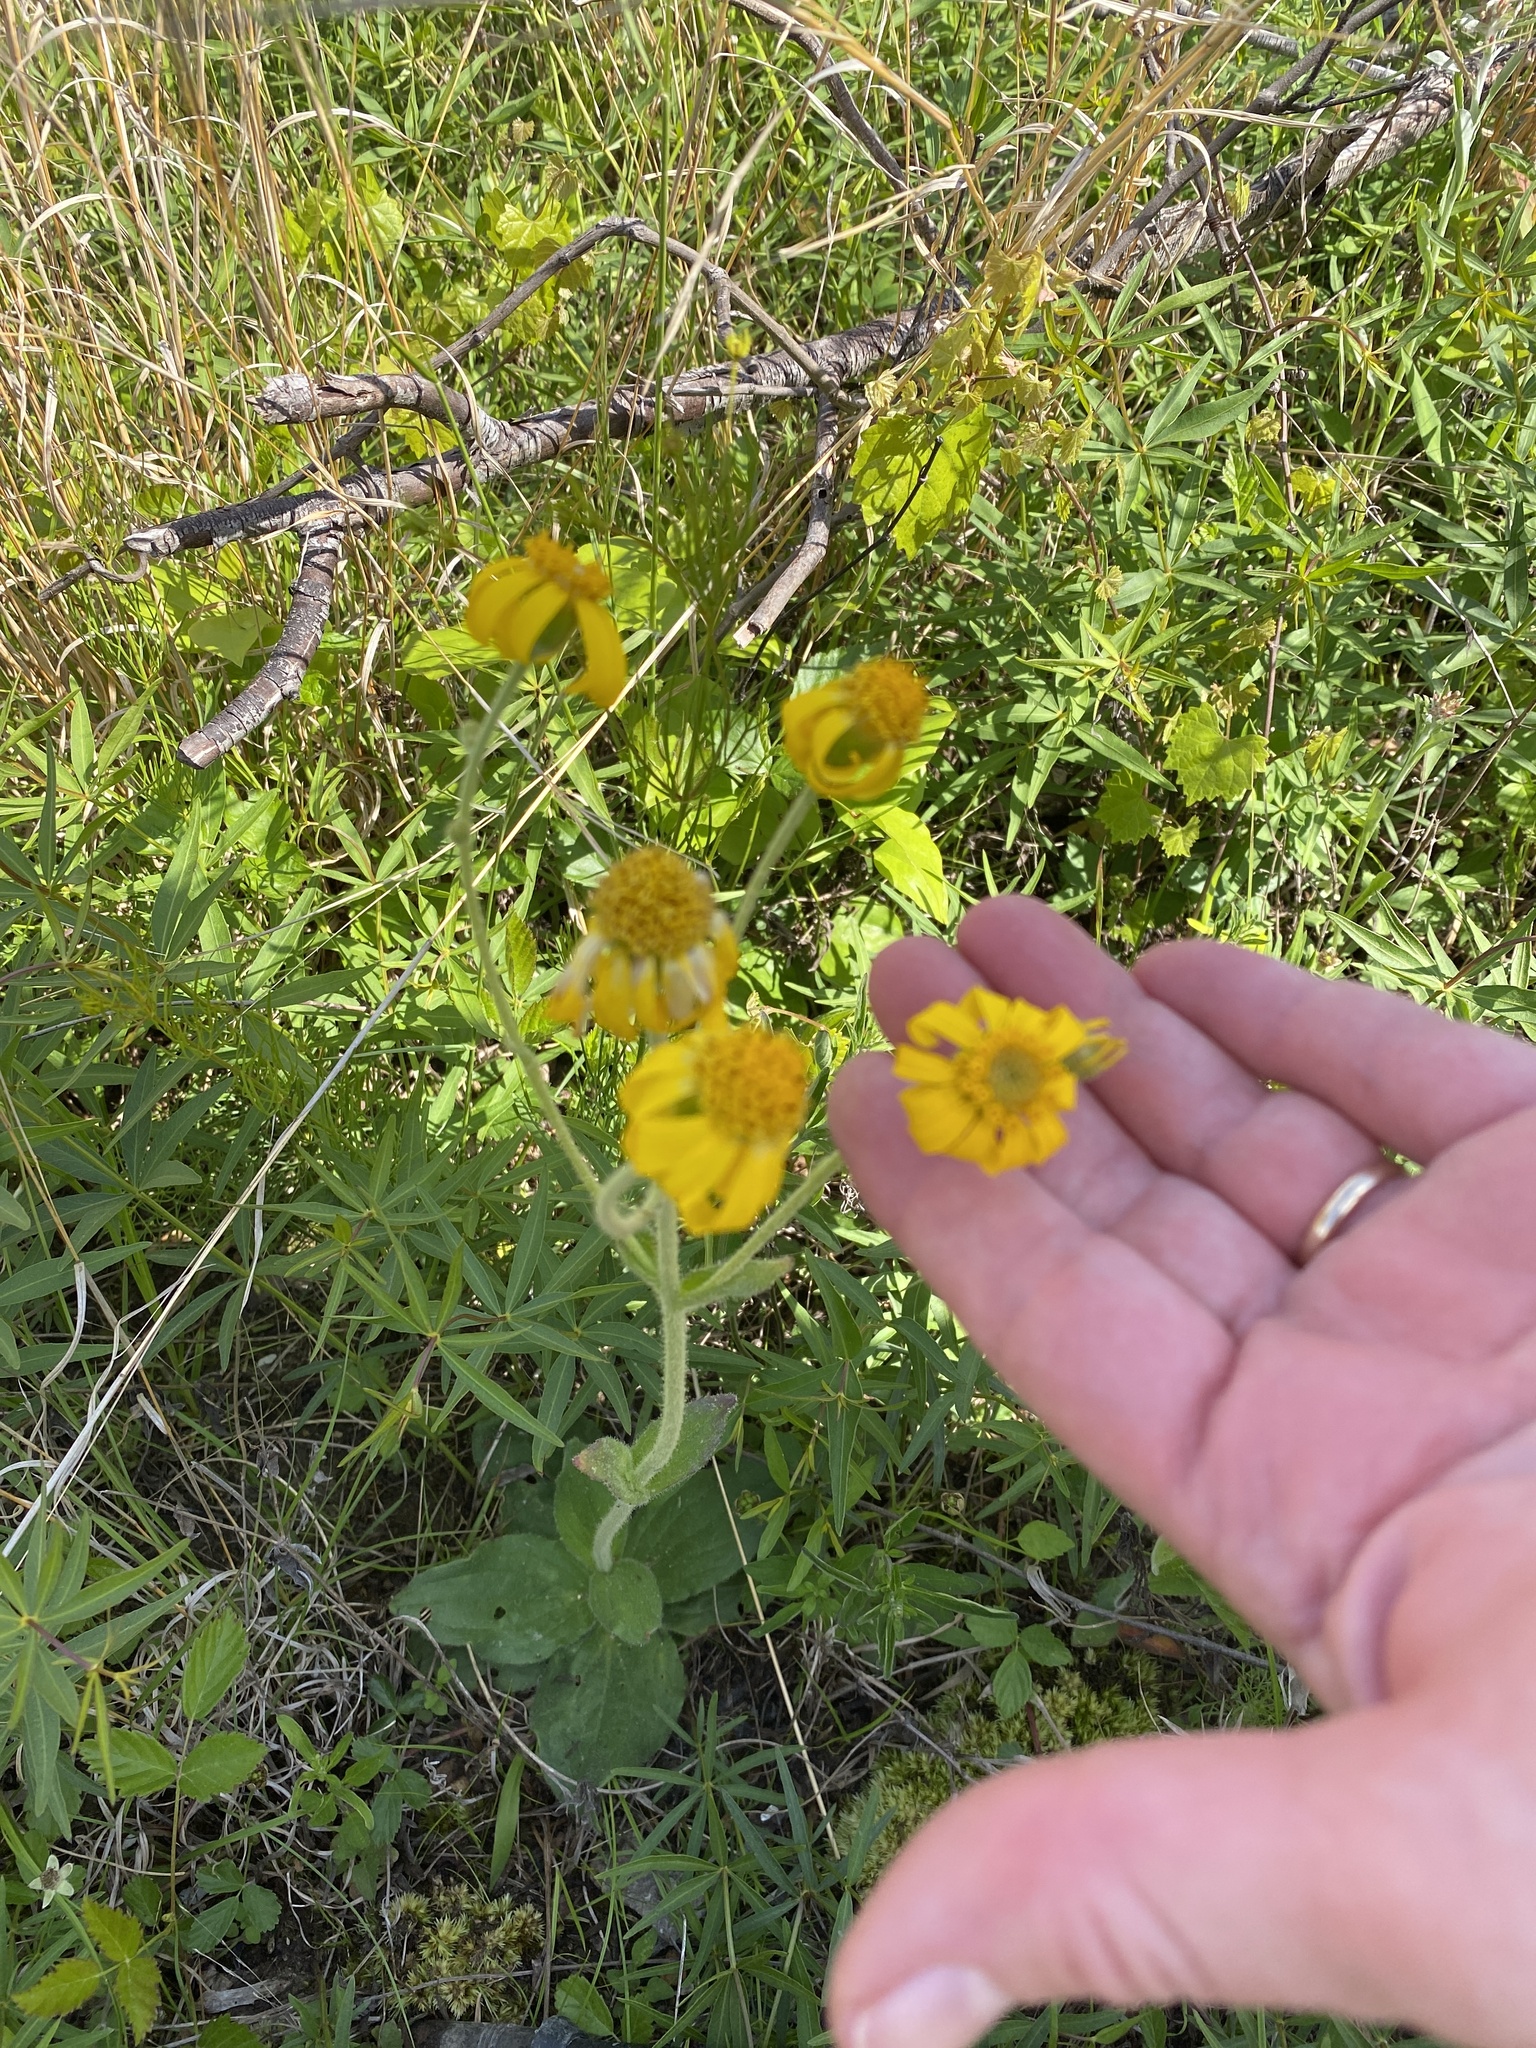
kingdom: Plantae
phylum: Tracheophyta
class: Magnoliopsida
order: Asterales
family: Asteraceae
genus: Arnica
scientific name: Arnica acaulis
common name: Common leopardbane
